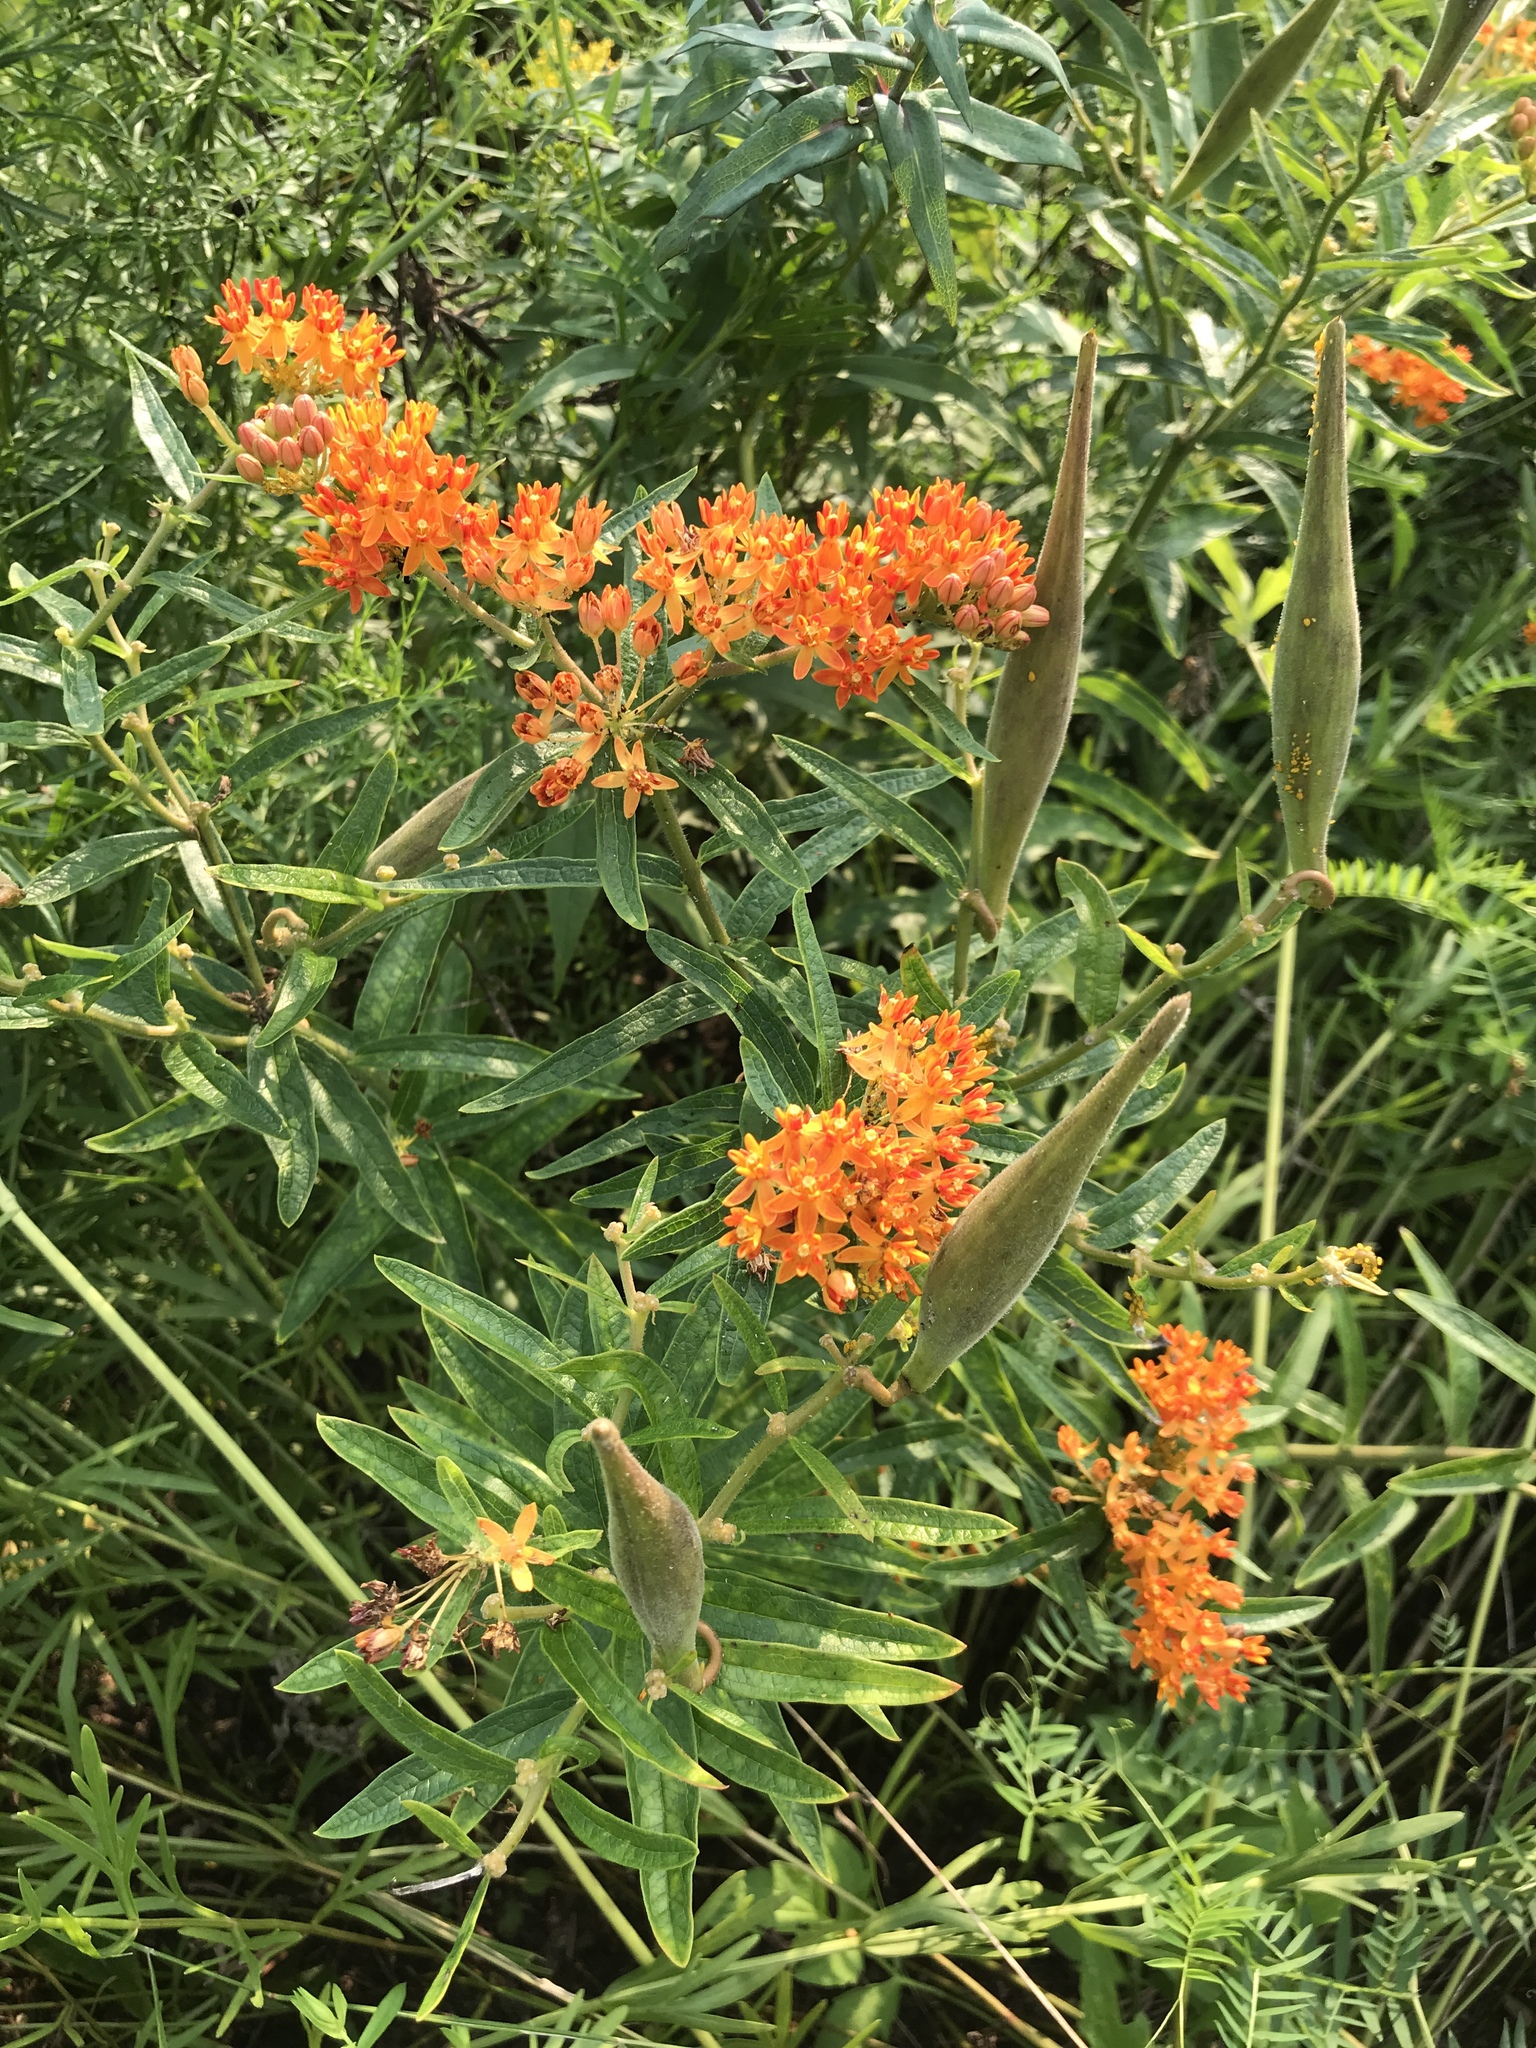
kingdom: Plantae
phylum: Tracheophyta
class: Magnoliopsida
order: Gentianales
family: Apocynaceae
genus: Asclepias
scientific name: Asclepias tuberosa
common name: Butterfly milkweed
